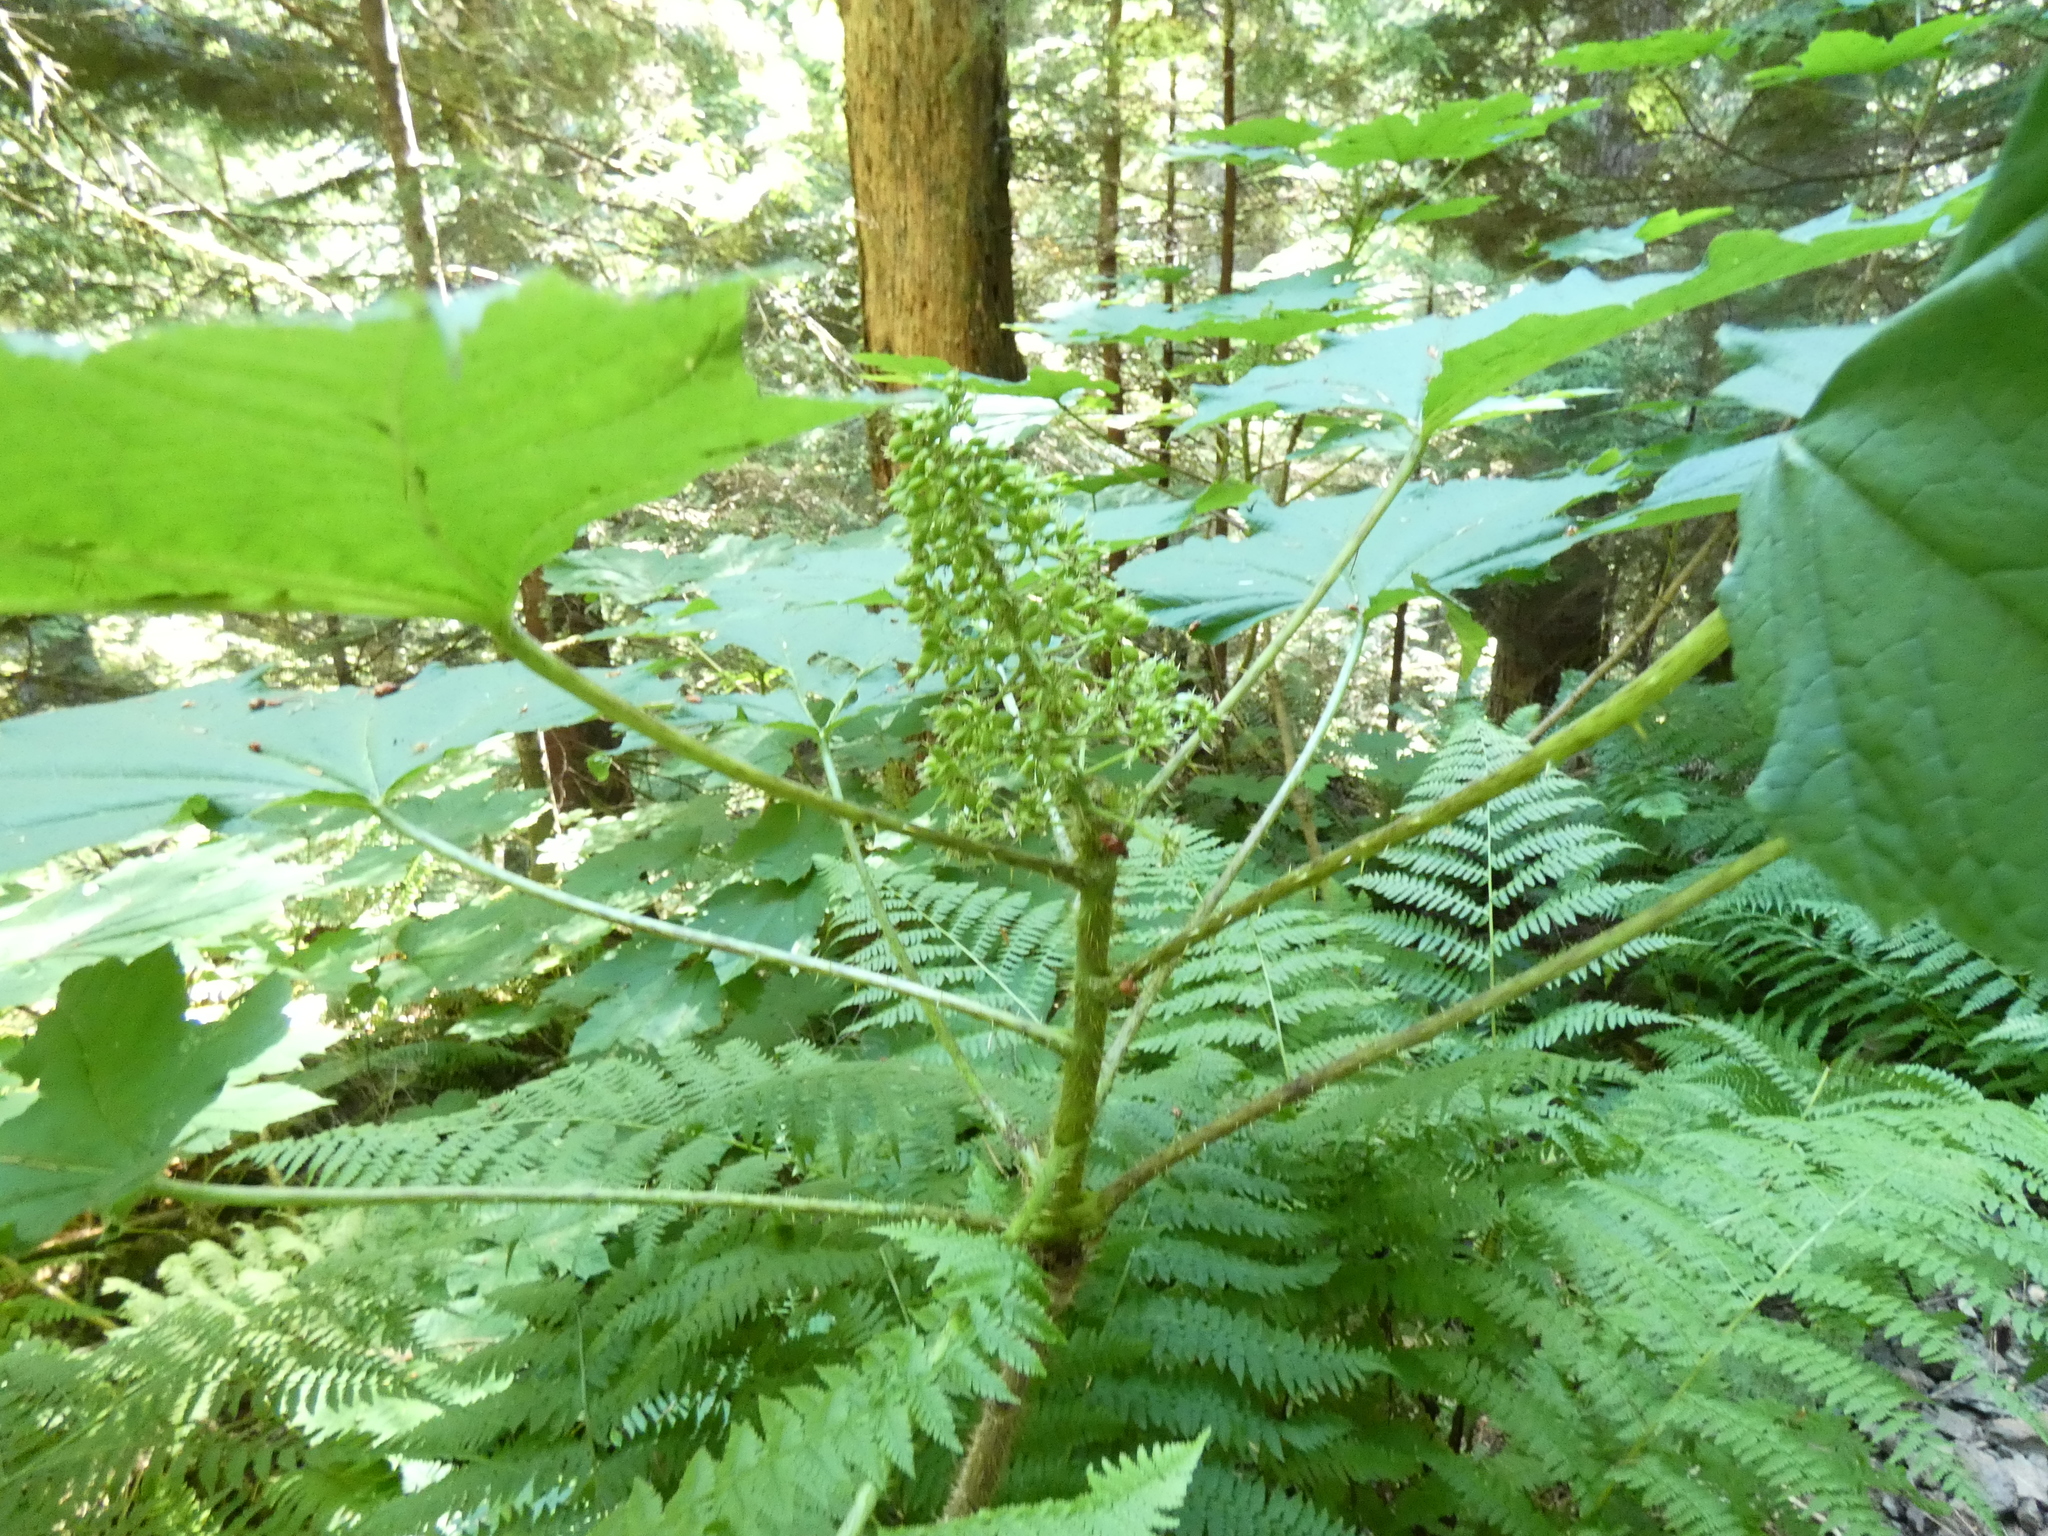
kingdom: Plantae
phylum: Tracheophyta
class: Magnoliopsida
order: Apiales
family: Araliaceae
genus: Oplopanax
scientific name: Oplopanax horridus
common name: Devil's walking-stick
